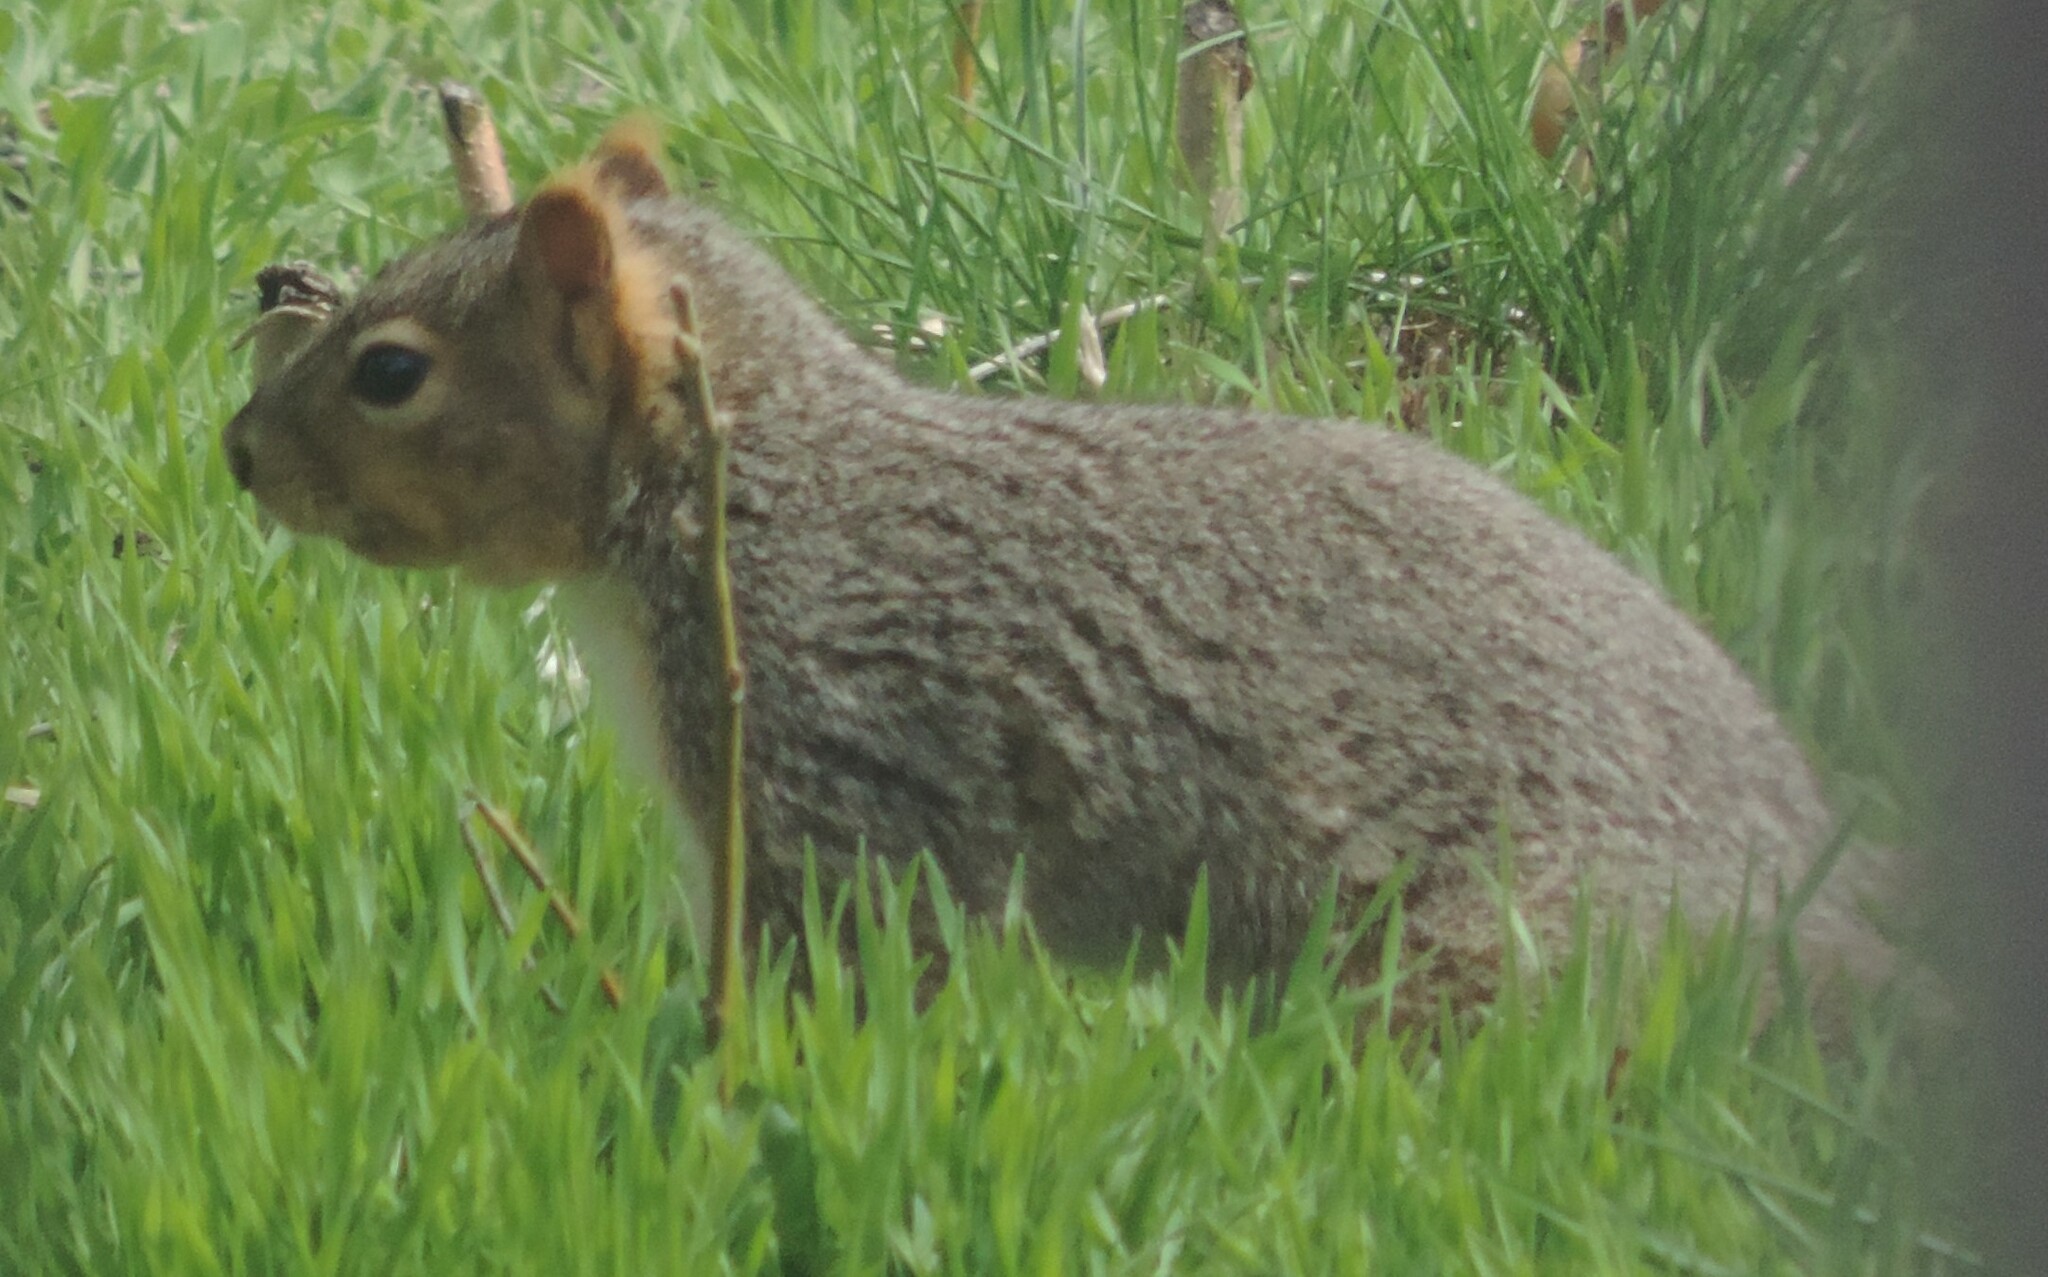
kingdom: Animalia
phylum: Chordata
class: Mammalia
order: Rodentia
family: Sciuridae
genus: Sciurus
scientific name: Sciurus niger
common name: Fox squirrel
